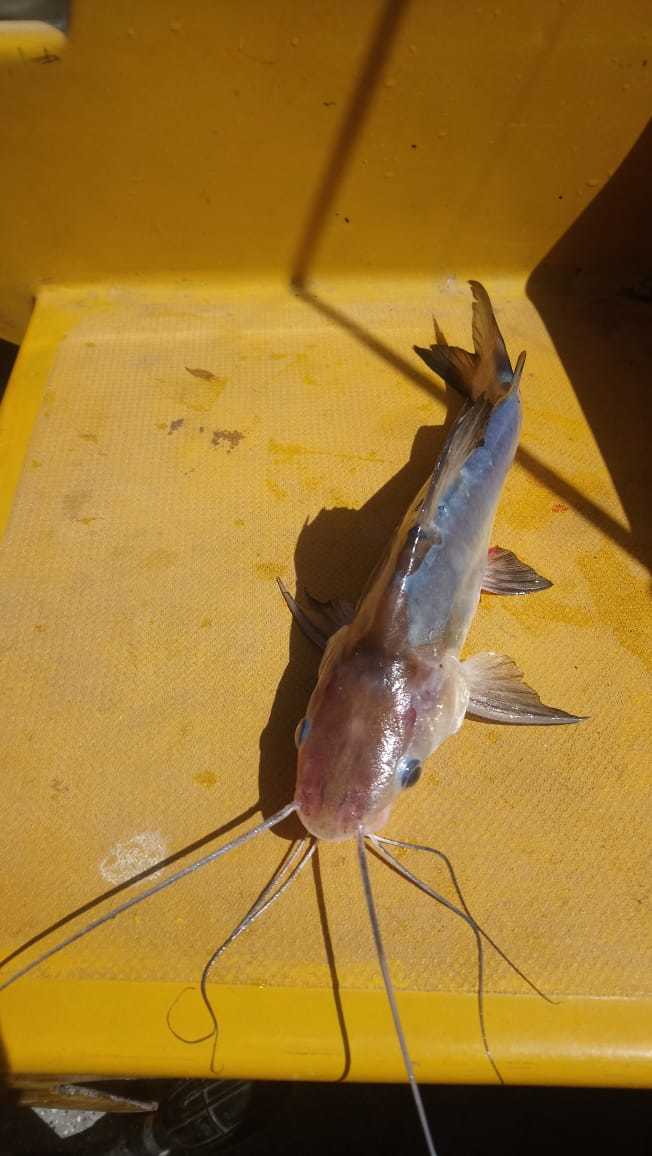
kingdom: Animalia
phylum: Chordata
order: Siluriformes
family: Pimelodidae
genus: Parapimelodus
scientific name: Parapimelodus valenciennis
